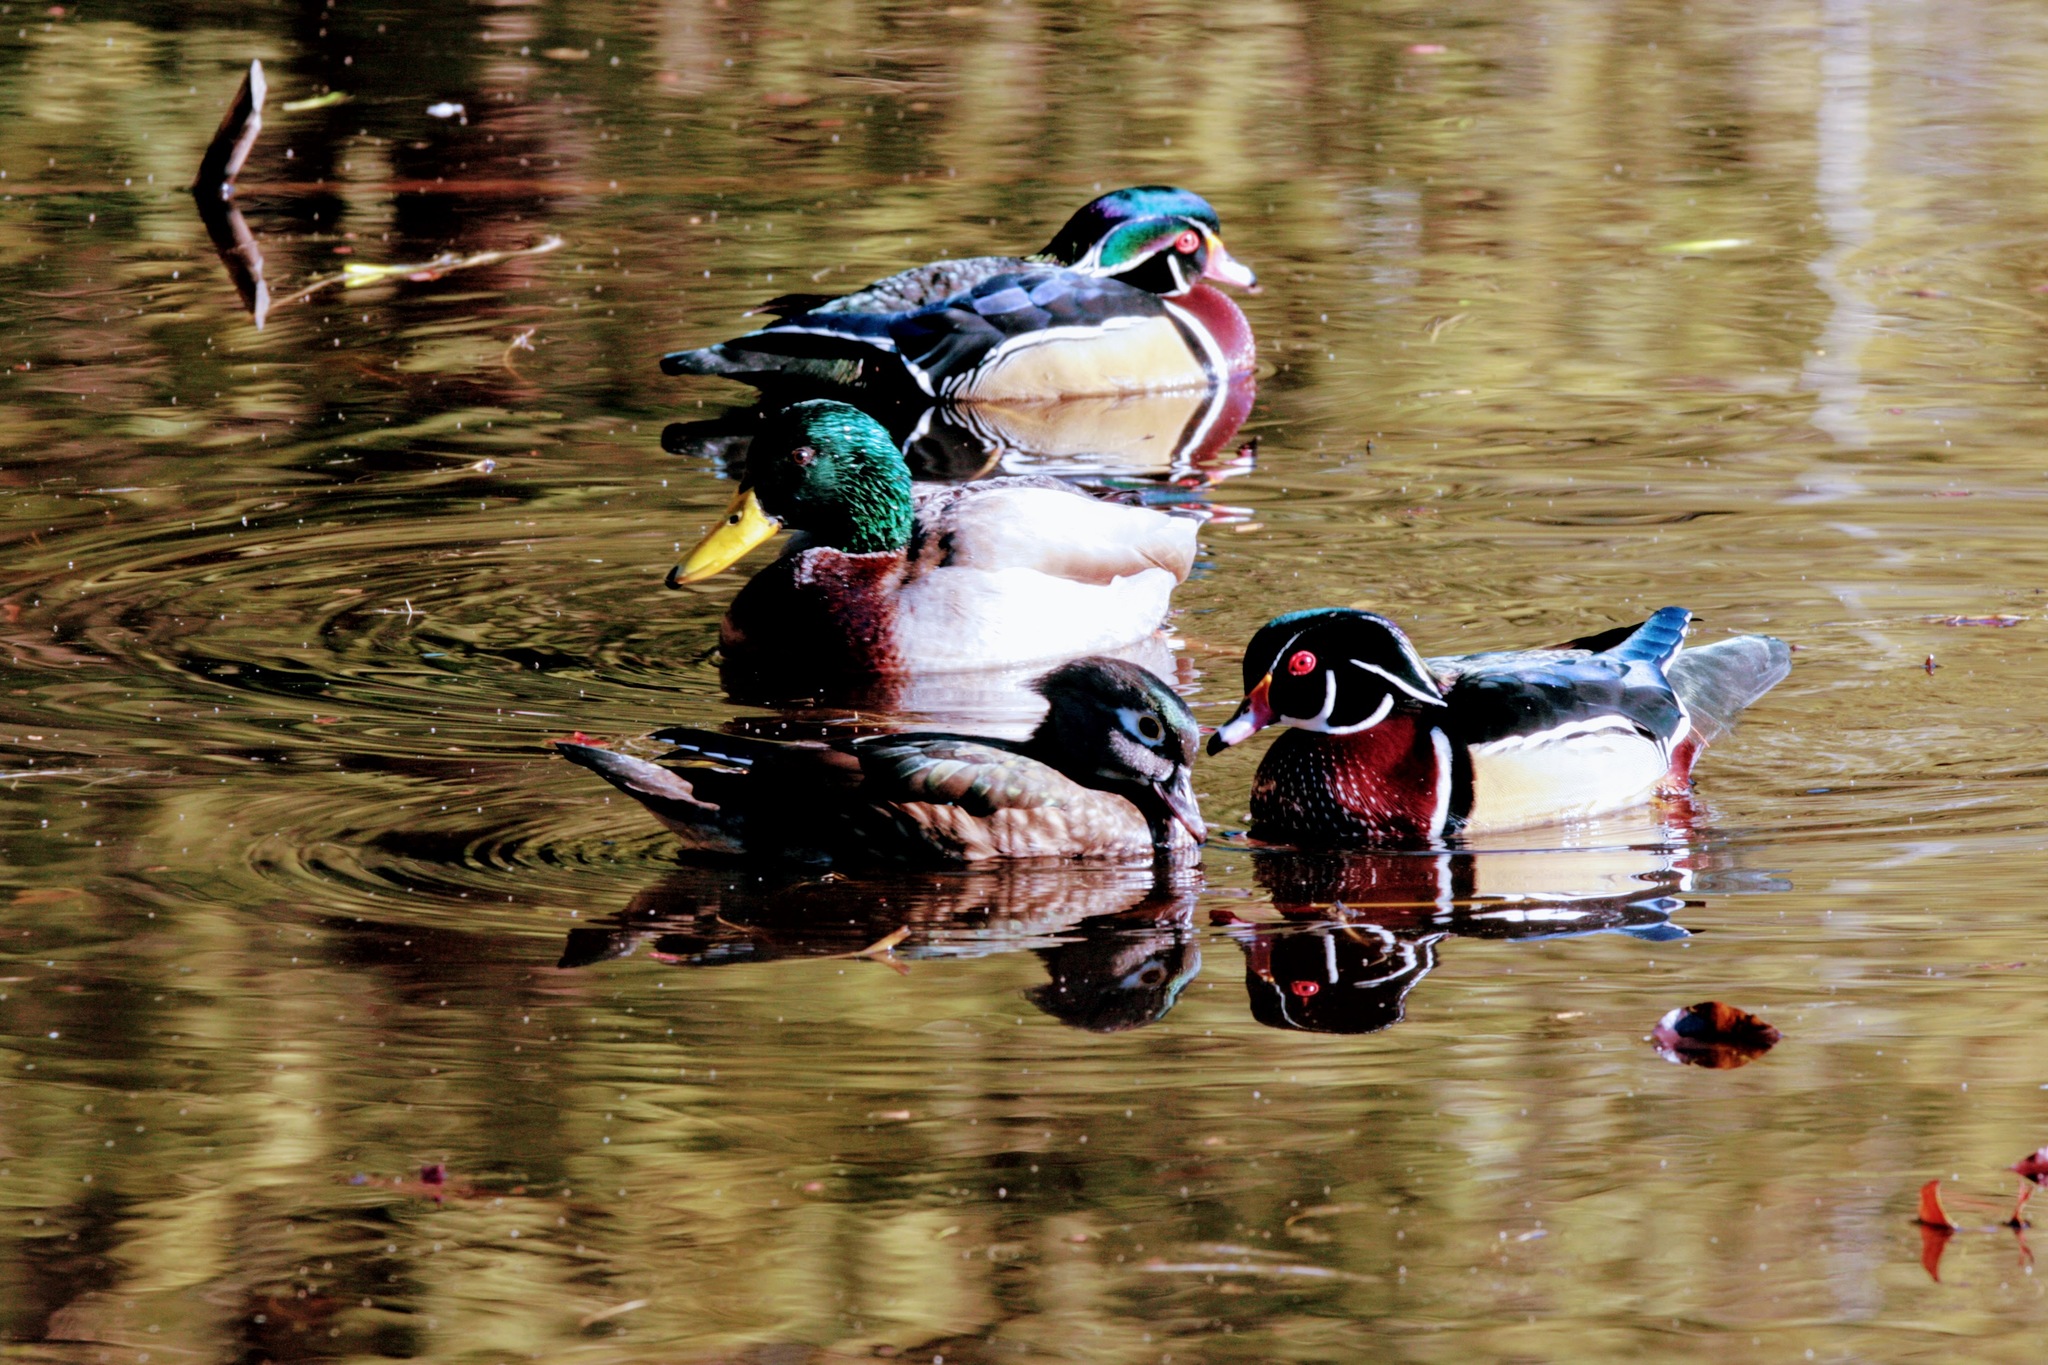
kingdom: Animalia
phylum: Chordata
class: Aves
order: Anseriformes
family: Anatidae
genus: Aix
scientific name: Aix sponsa
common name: Wood duck
